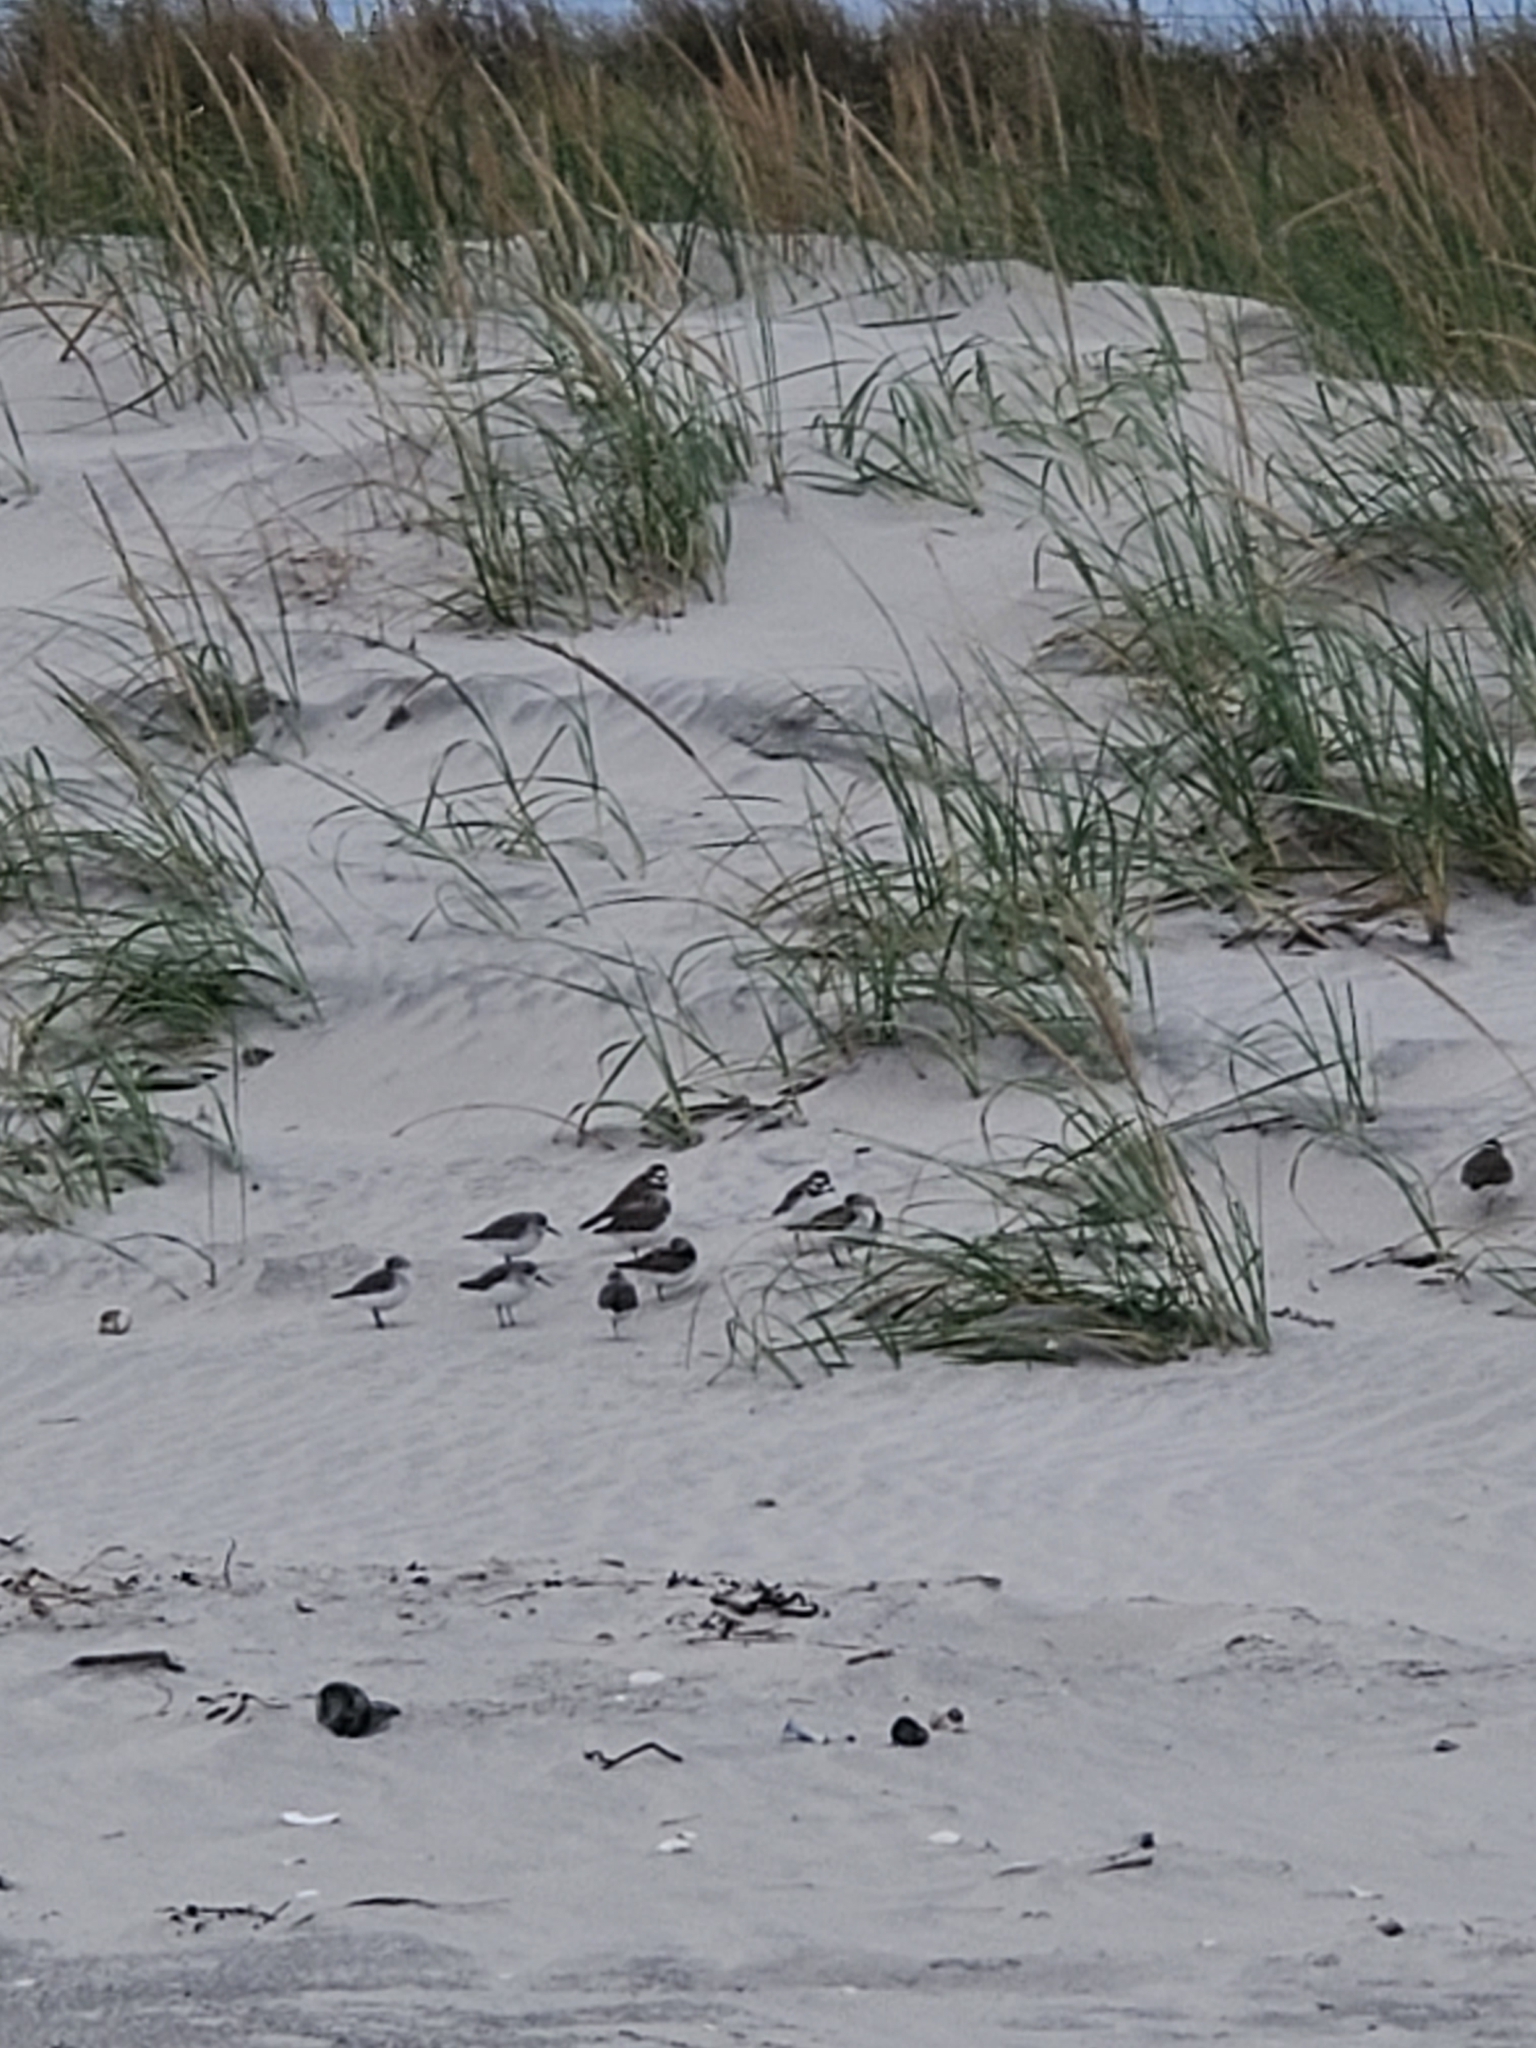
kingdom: Animalia
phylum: Chordata
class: Aves
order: Charadriiformes
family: Charadriidae
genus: Charadrius
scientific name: Charadrius semipalmatus
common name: Semipalmated plover
